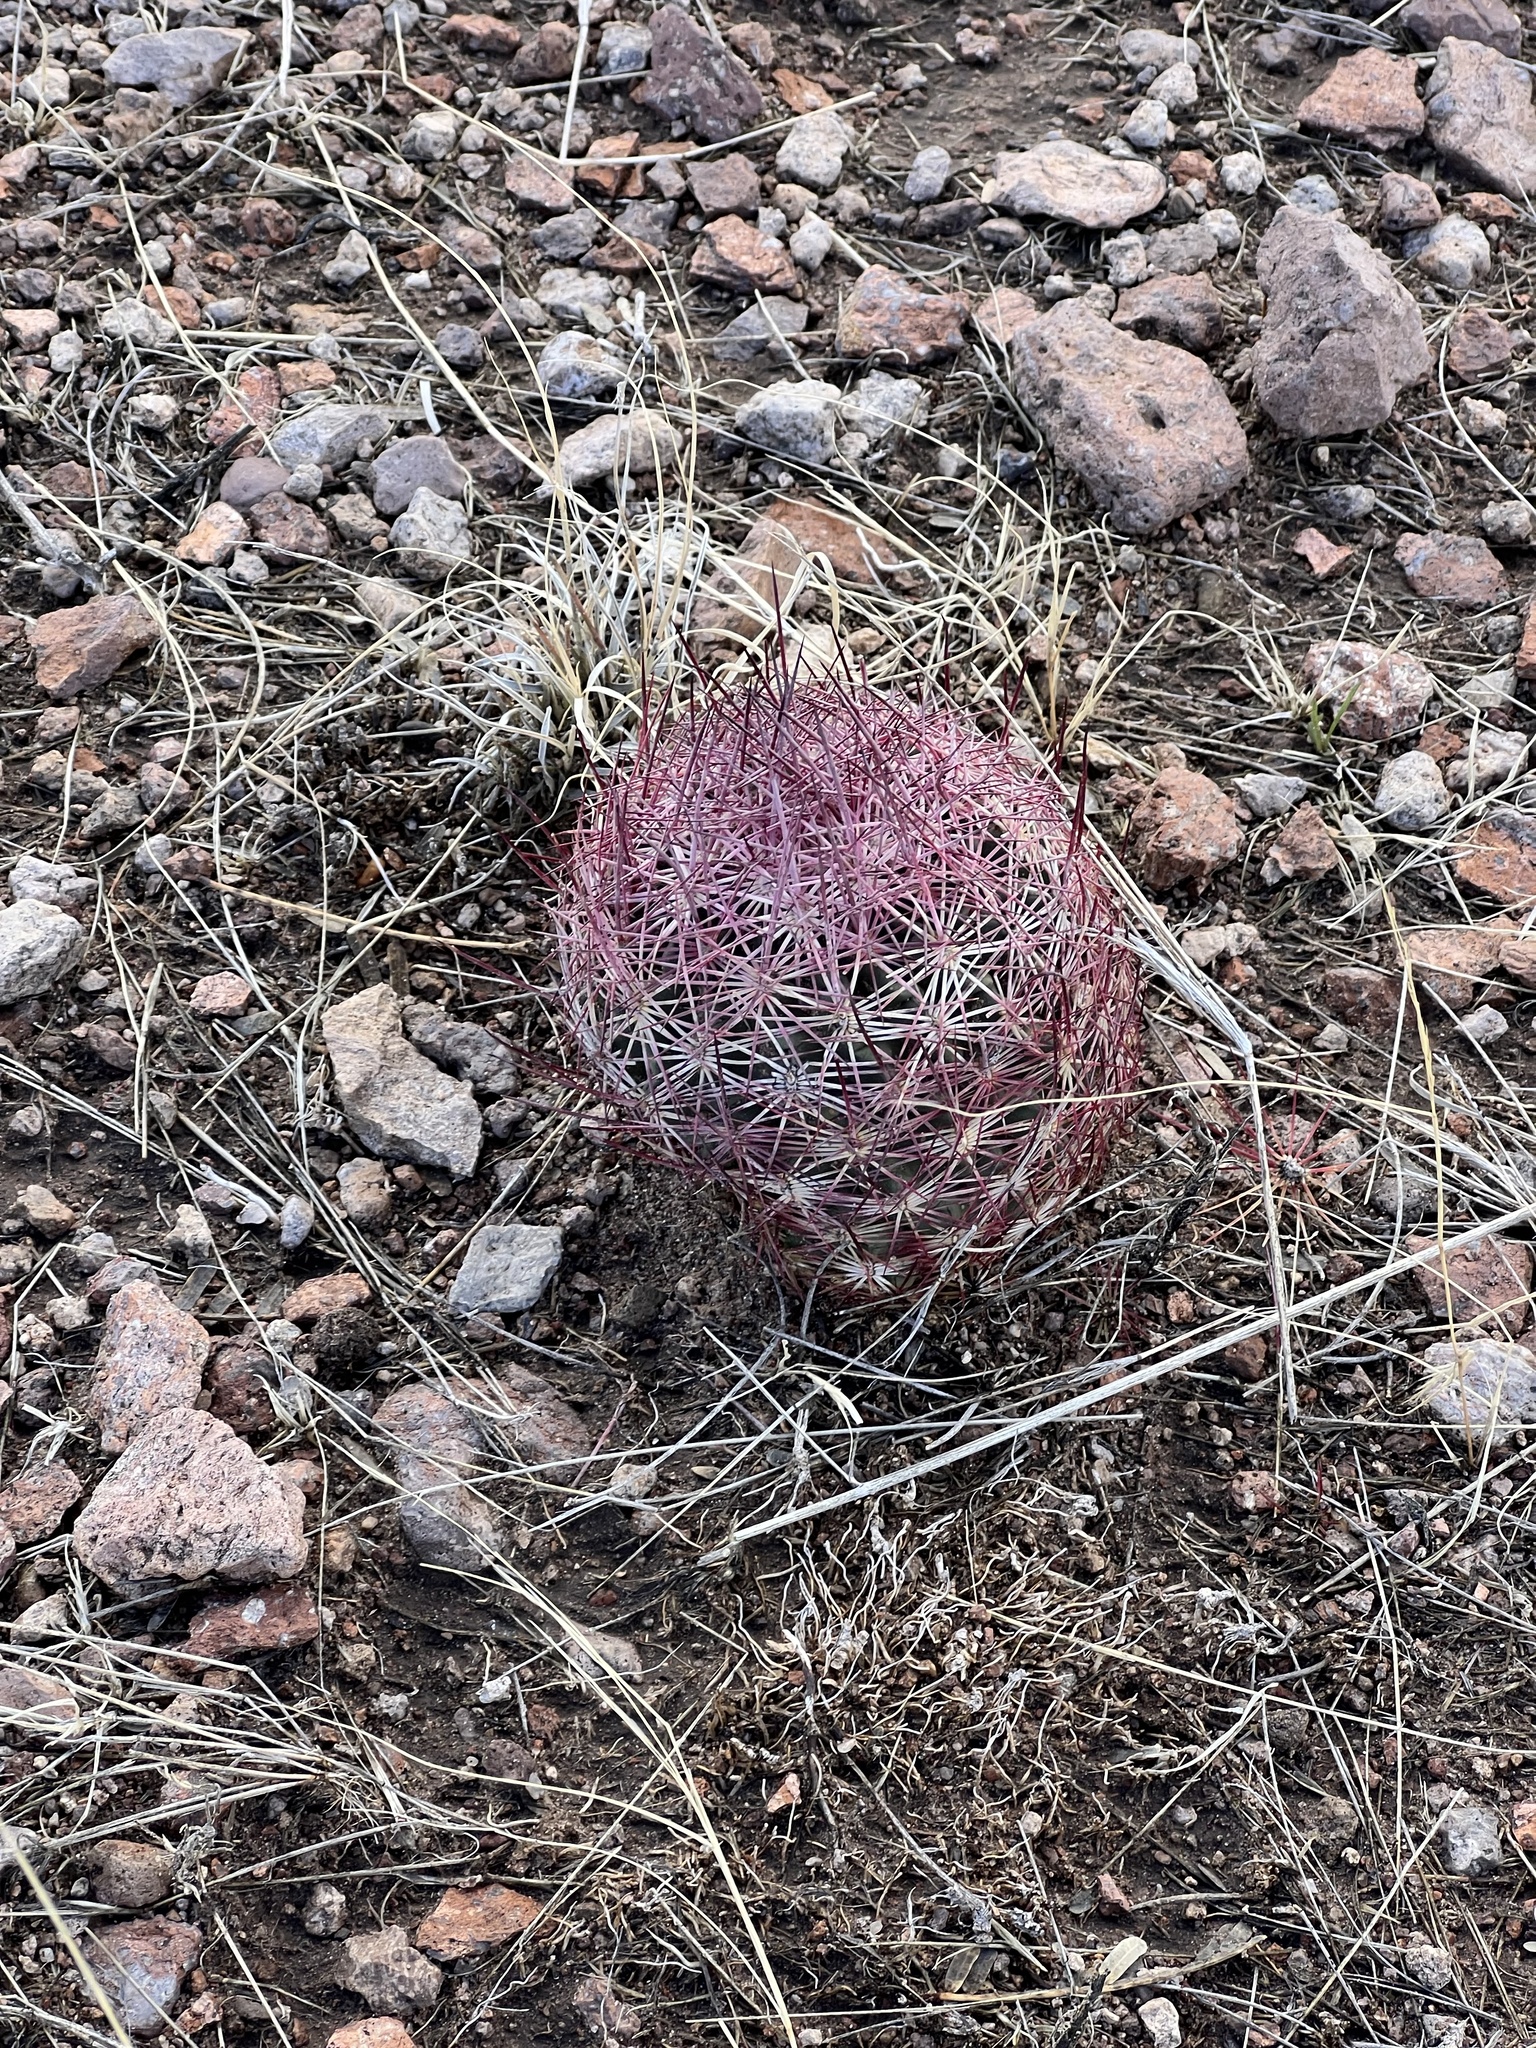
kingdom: Plantae
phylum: Tracheophyta
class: Magnoliopsida
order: Caryophyllales
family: Cactaceae
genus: Sclerocactus
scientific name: Sclerocactus johnsonii
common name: Eight-spine fishhook cactus
